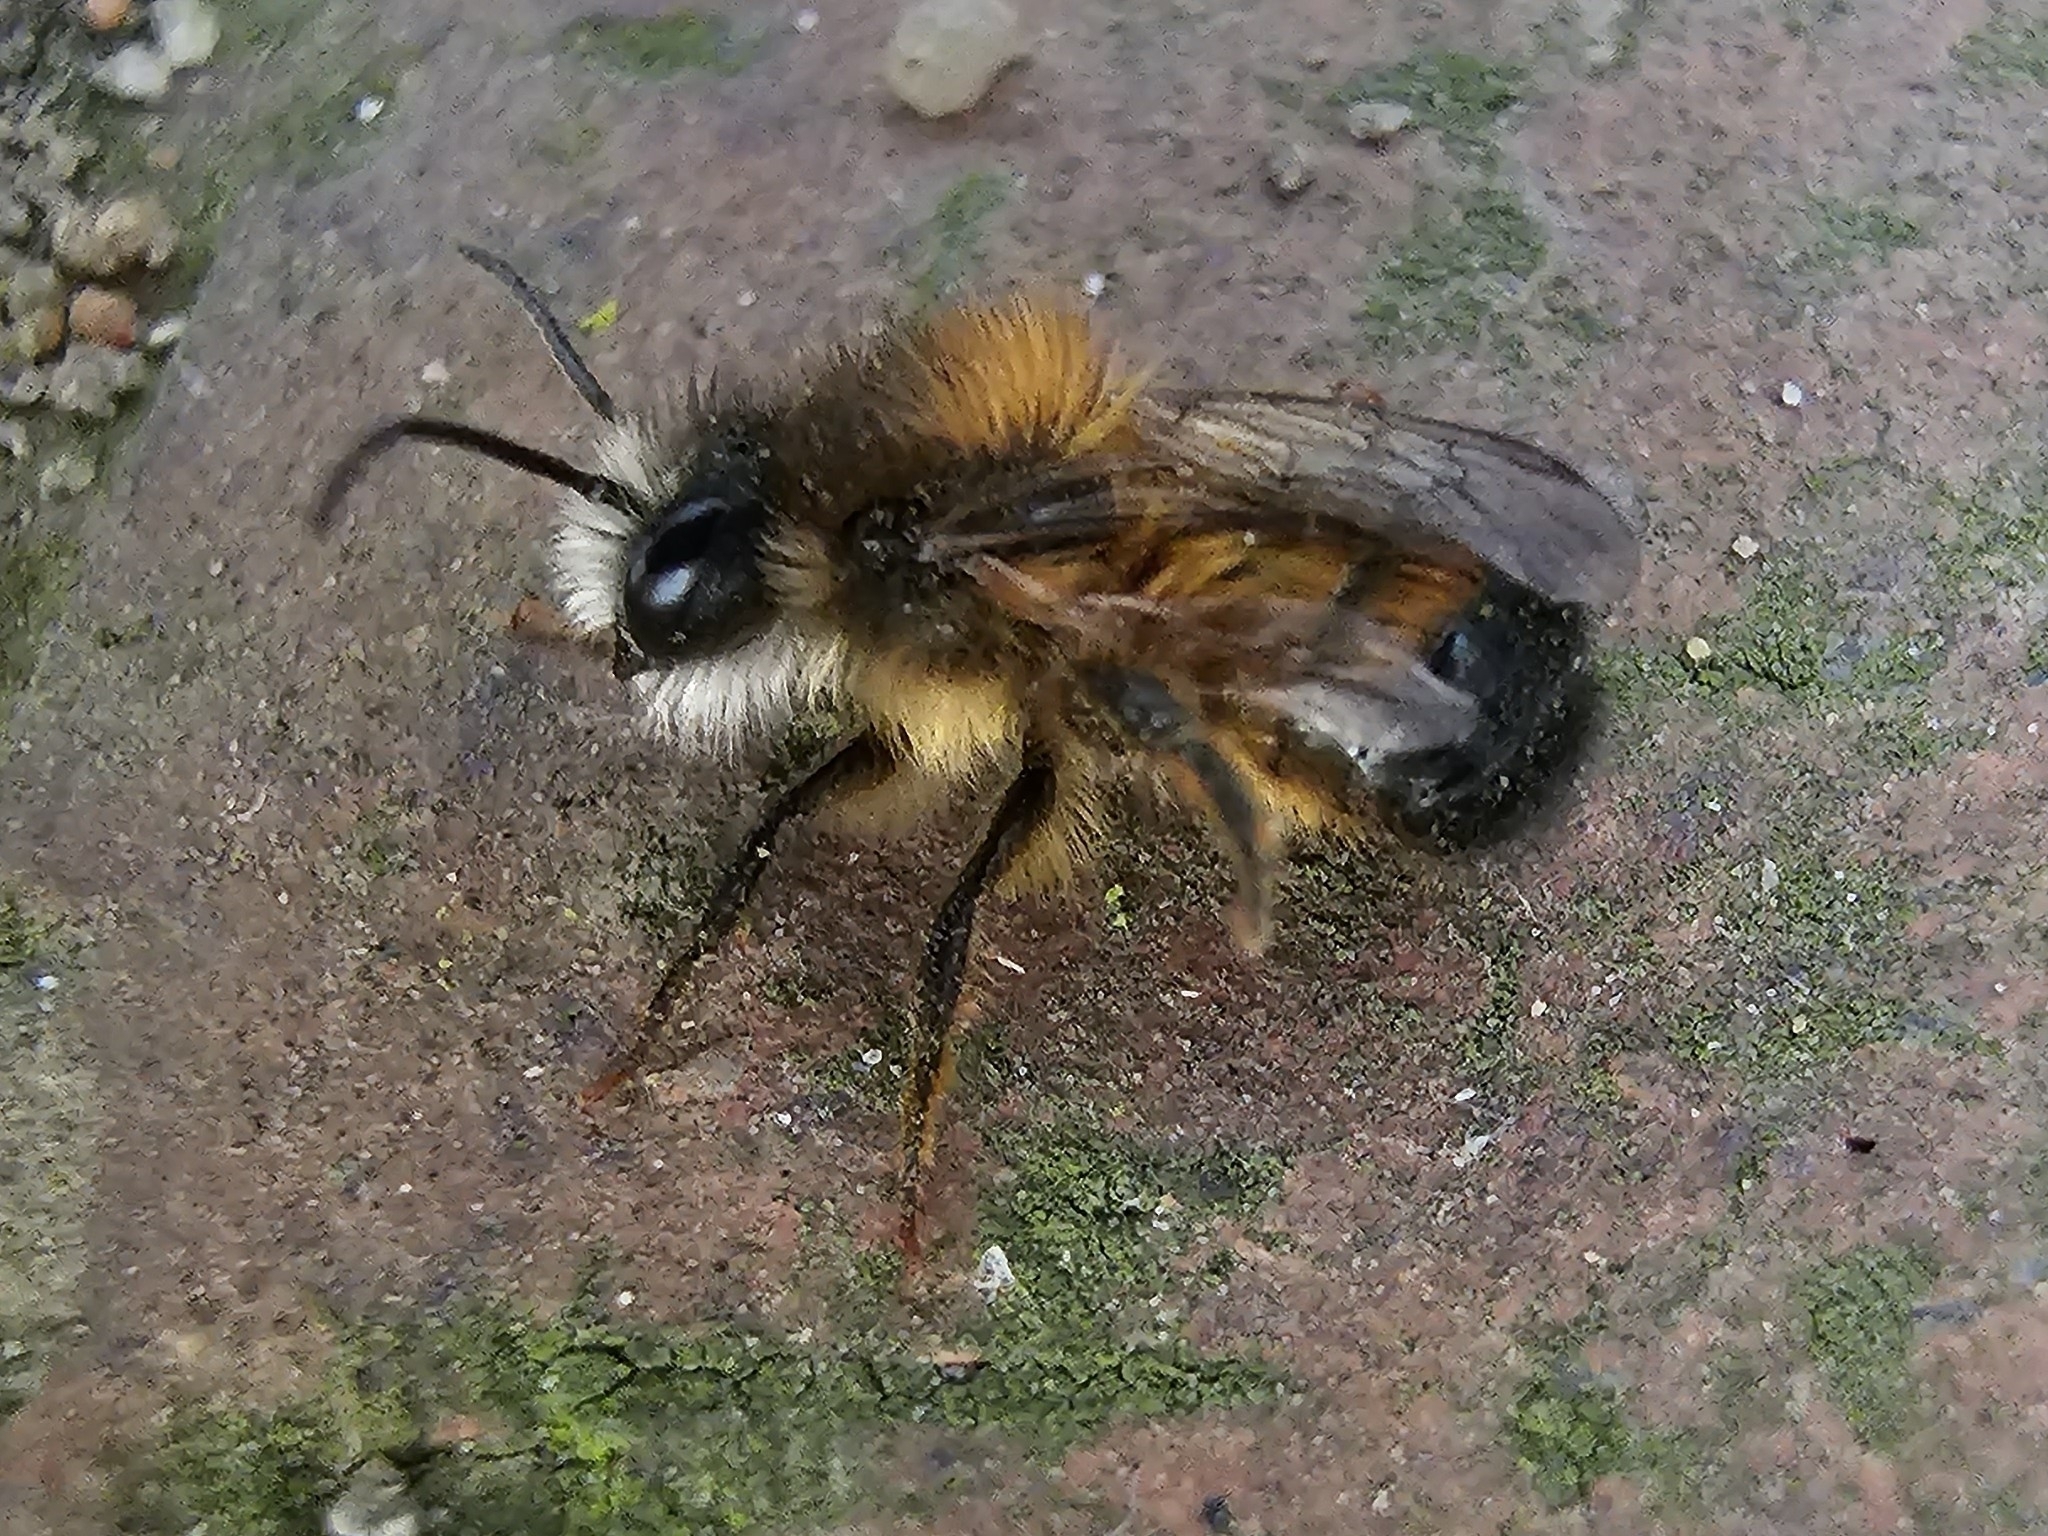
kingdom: Animalia
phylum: Arthropoda
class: Insecta
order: Hymenoptera
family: Megachilidae
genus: Osmia
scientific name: Osmia bicornis
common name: Red mason bee
